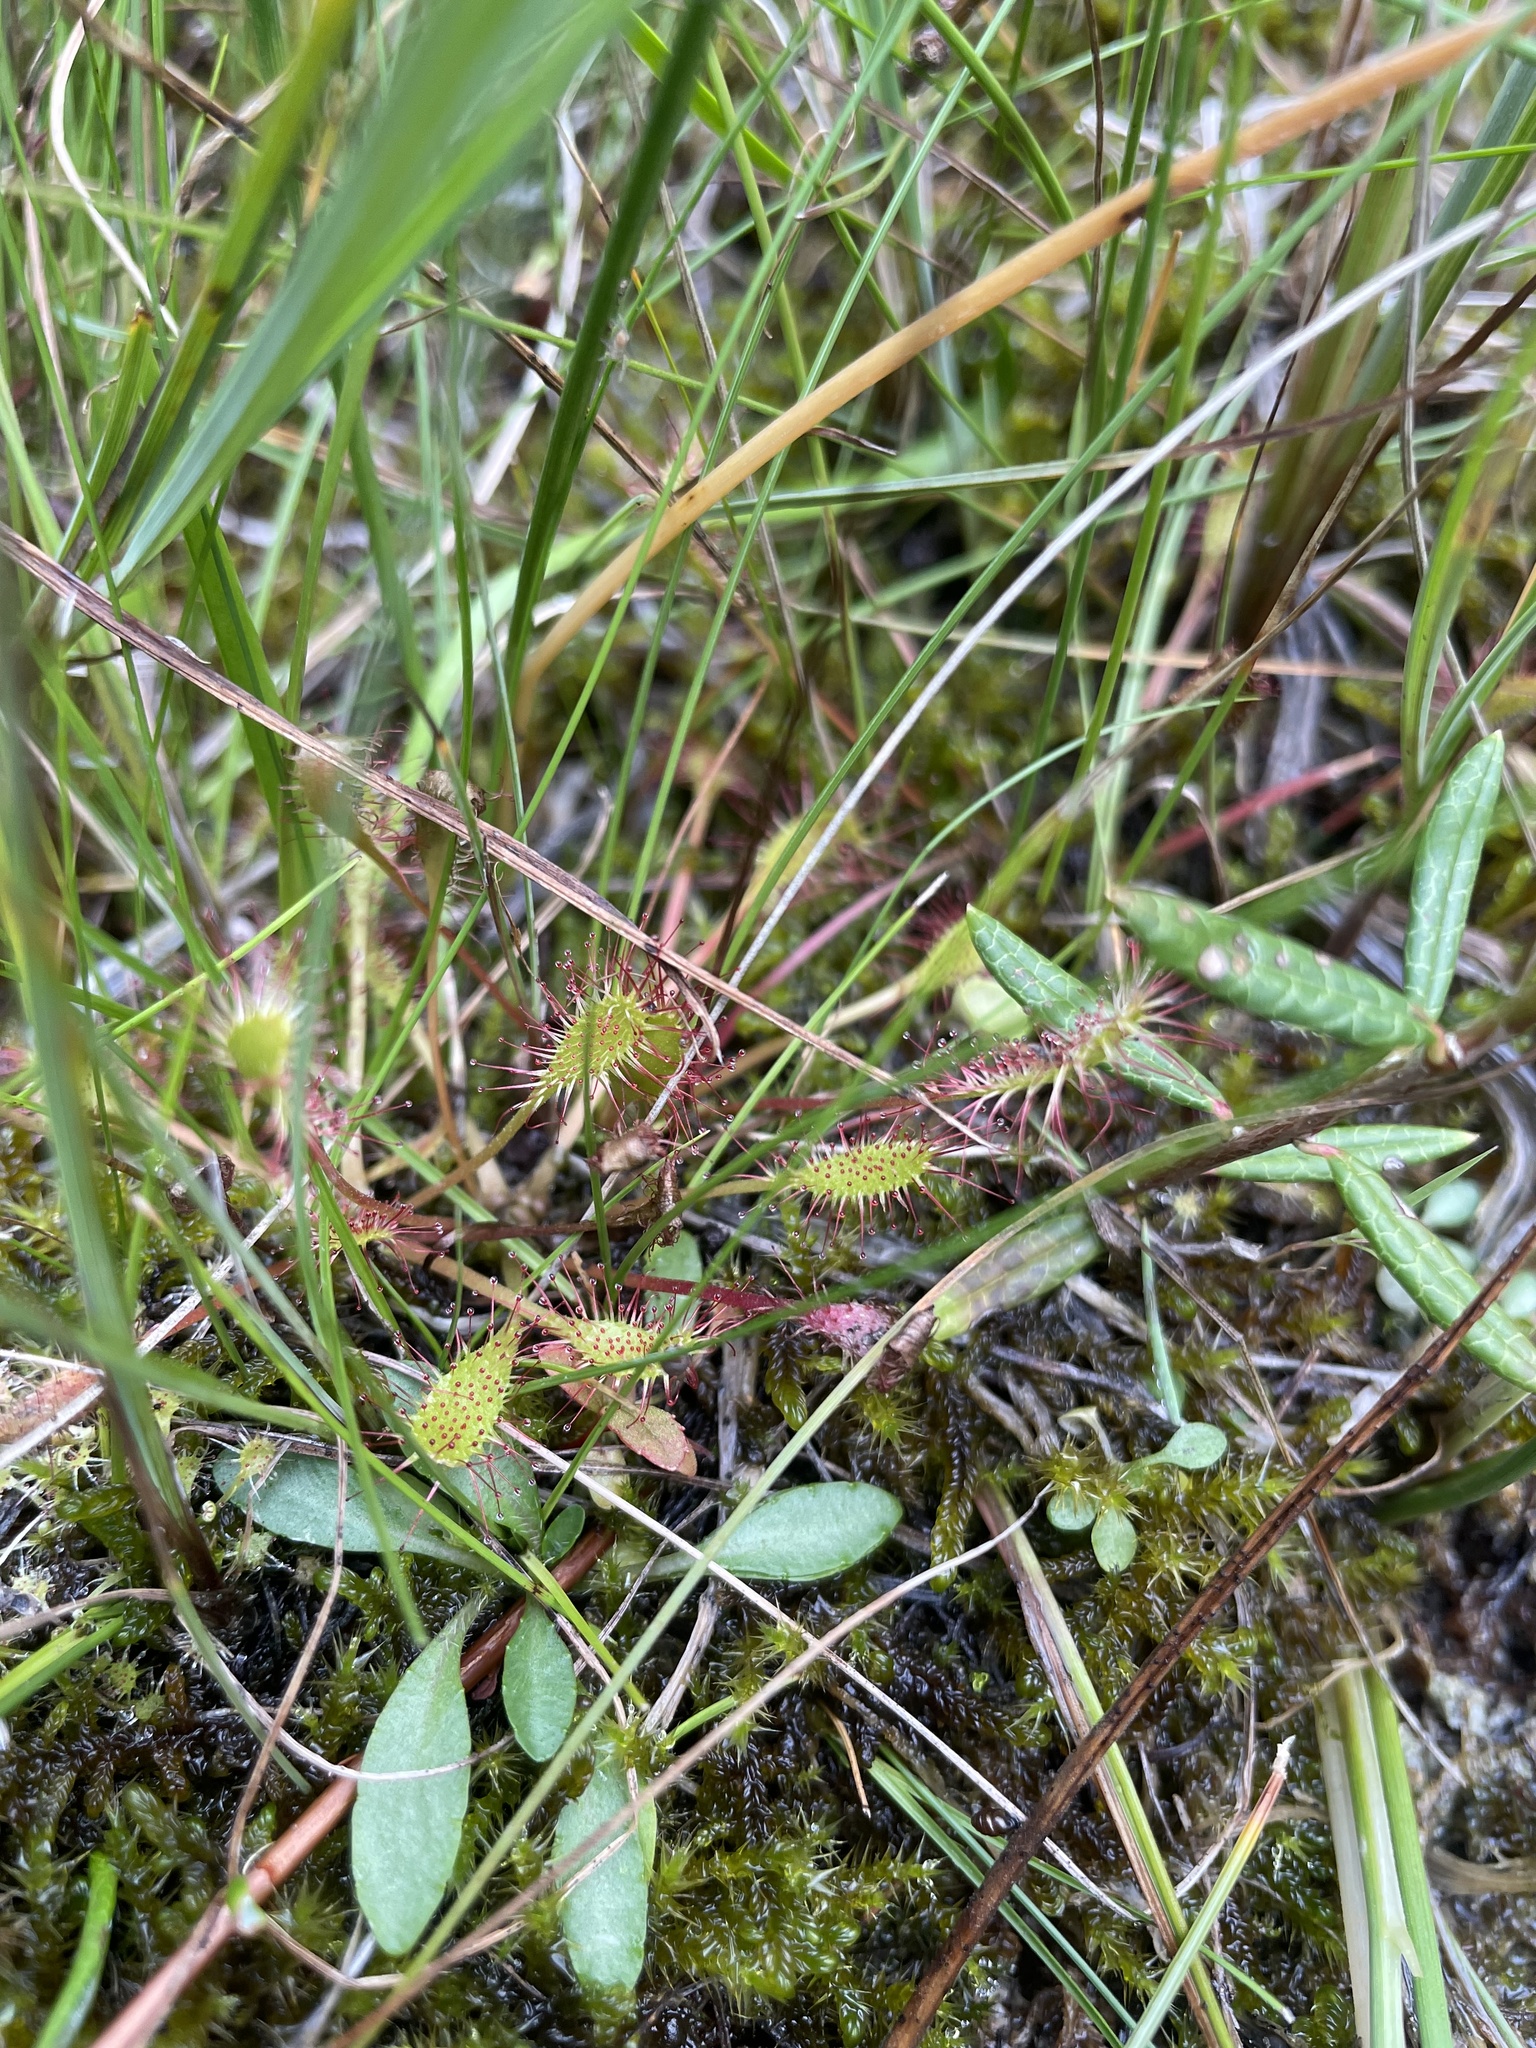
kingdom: Plantae
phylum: Tracheophyta
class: Magnoliopsida
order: Caryophyllales
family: Droseraceae
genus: Drosera
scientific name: Drosera anglica
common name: Great sundew
